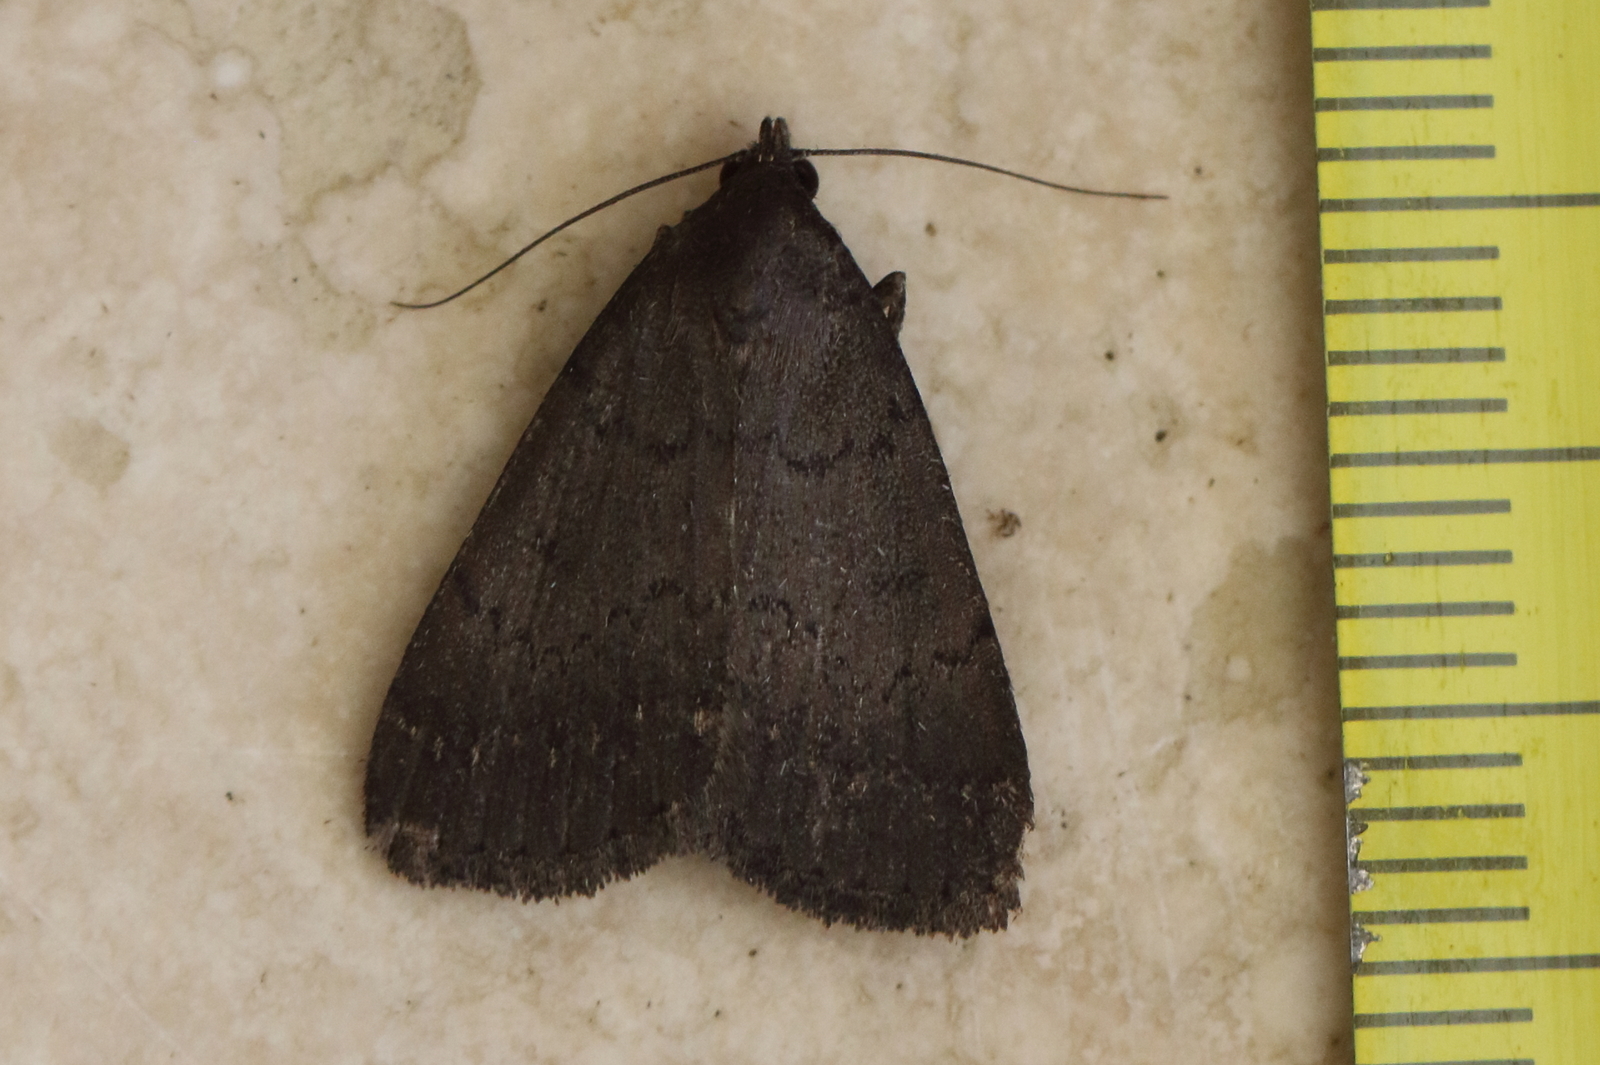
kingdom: Animalia
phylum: Arthropoda
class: Insecta
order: Lepidoptera
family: Erebidae
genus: Simplicia
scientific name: Simplicia cornicalis
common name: Tiki hut litter moth
